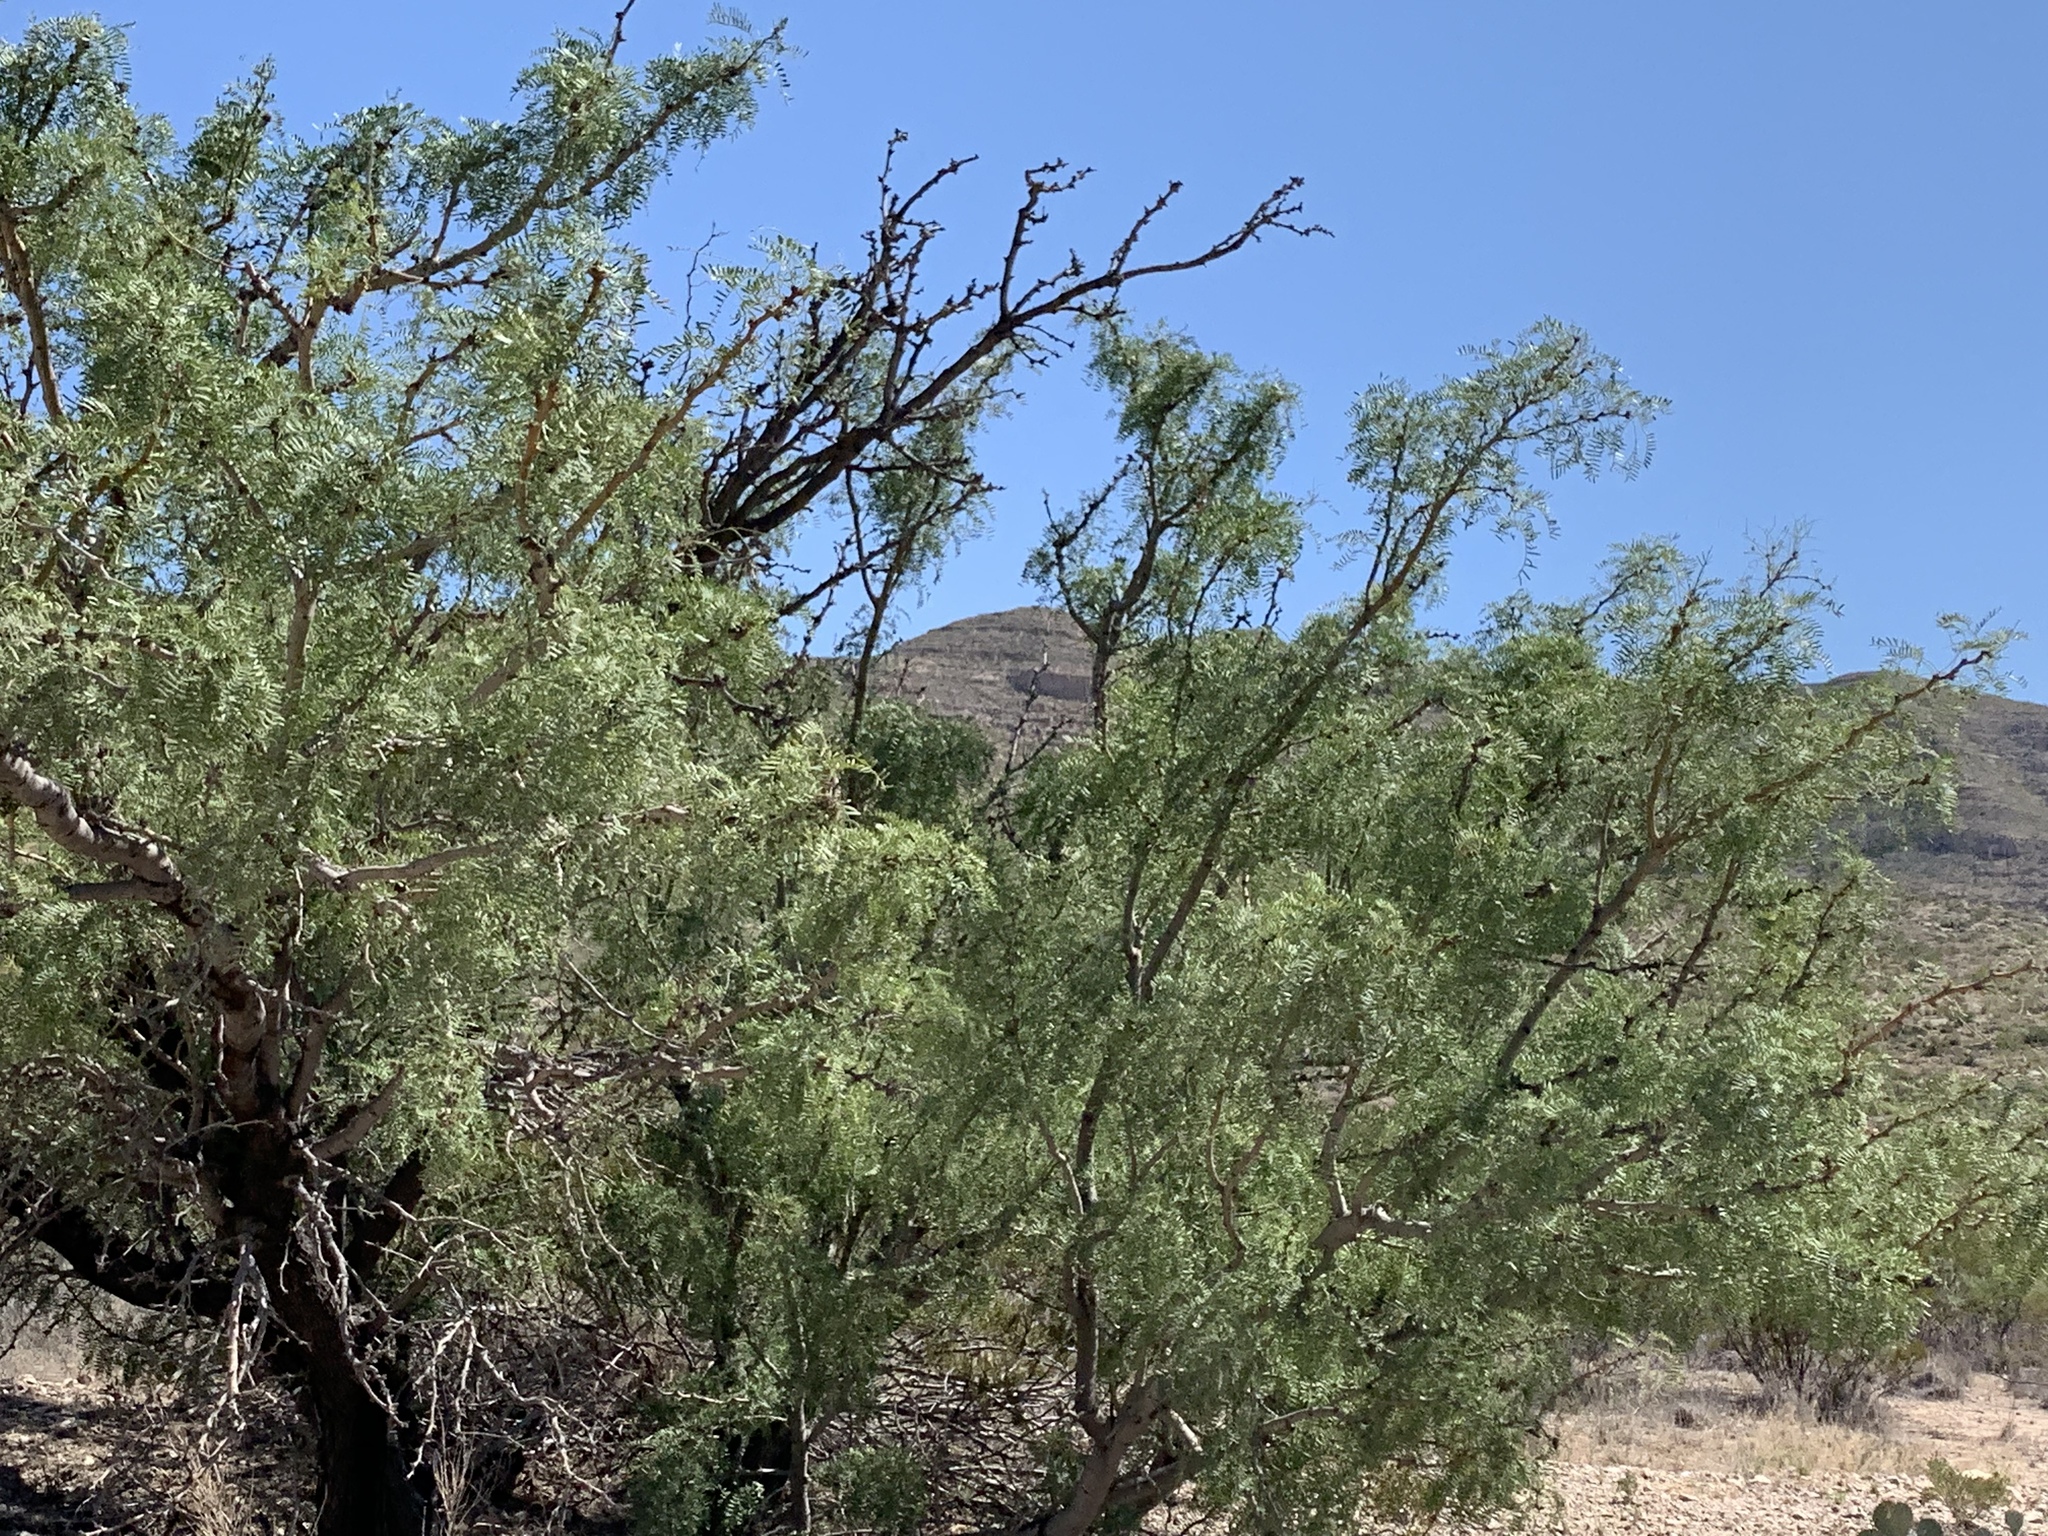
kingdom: Plantae
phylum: Tracheophyta
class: Magnoliopsida
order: Fabales
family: Fabaceae
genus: Prosopis
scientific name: Prosopis glandulosa
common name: Honey mesquite
